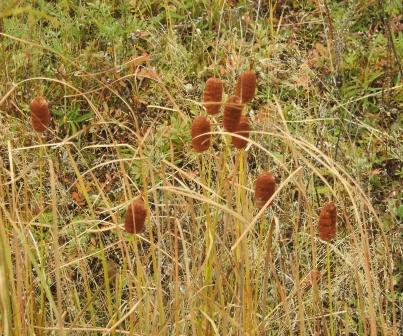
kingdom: Plantae
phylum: Tracheophyta
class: Liliopsida
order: Poales
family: Typhaceae
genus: Typha
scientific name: Typha laxmannii
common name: Laxman’s bulrush
